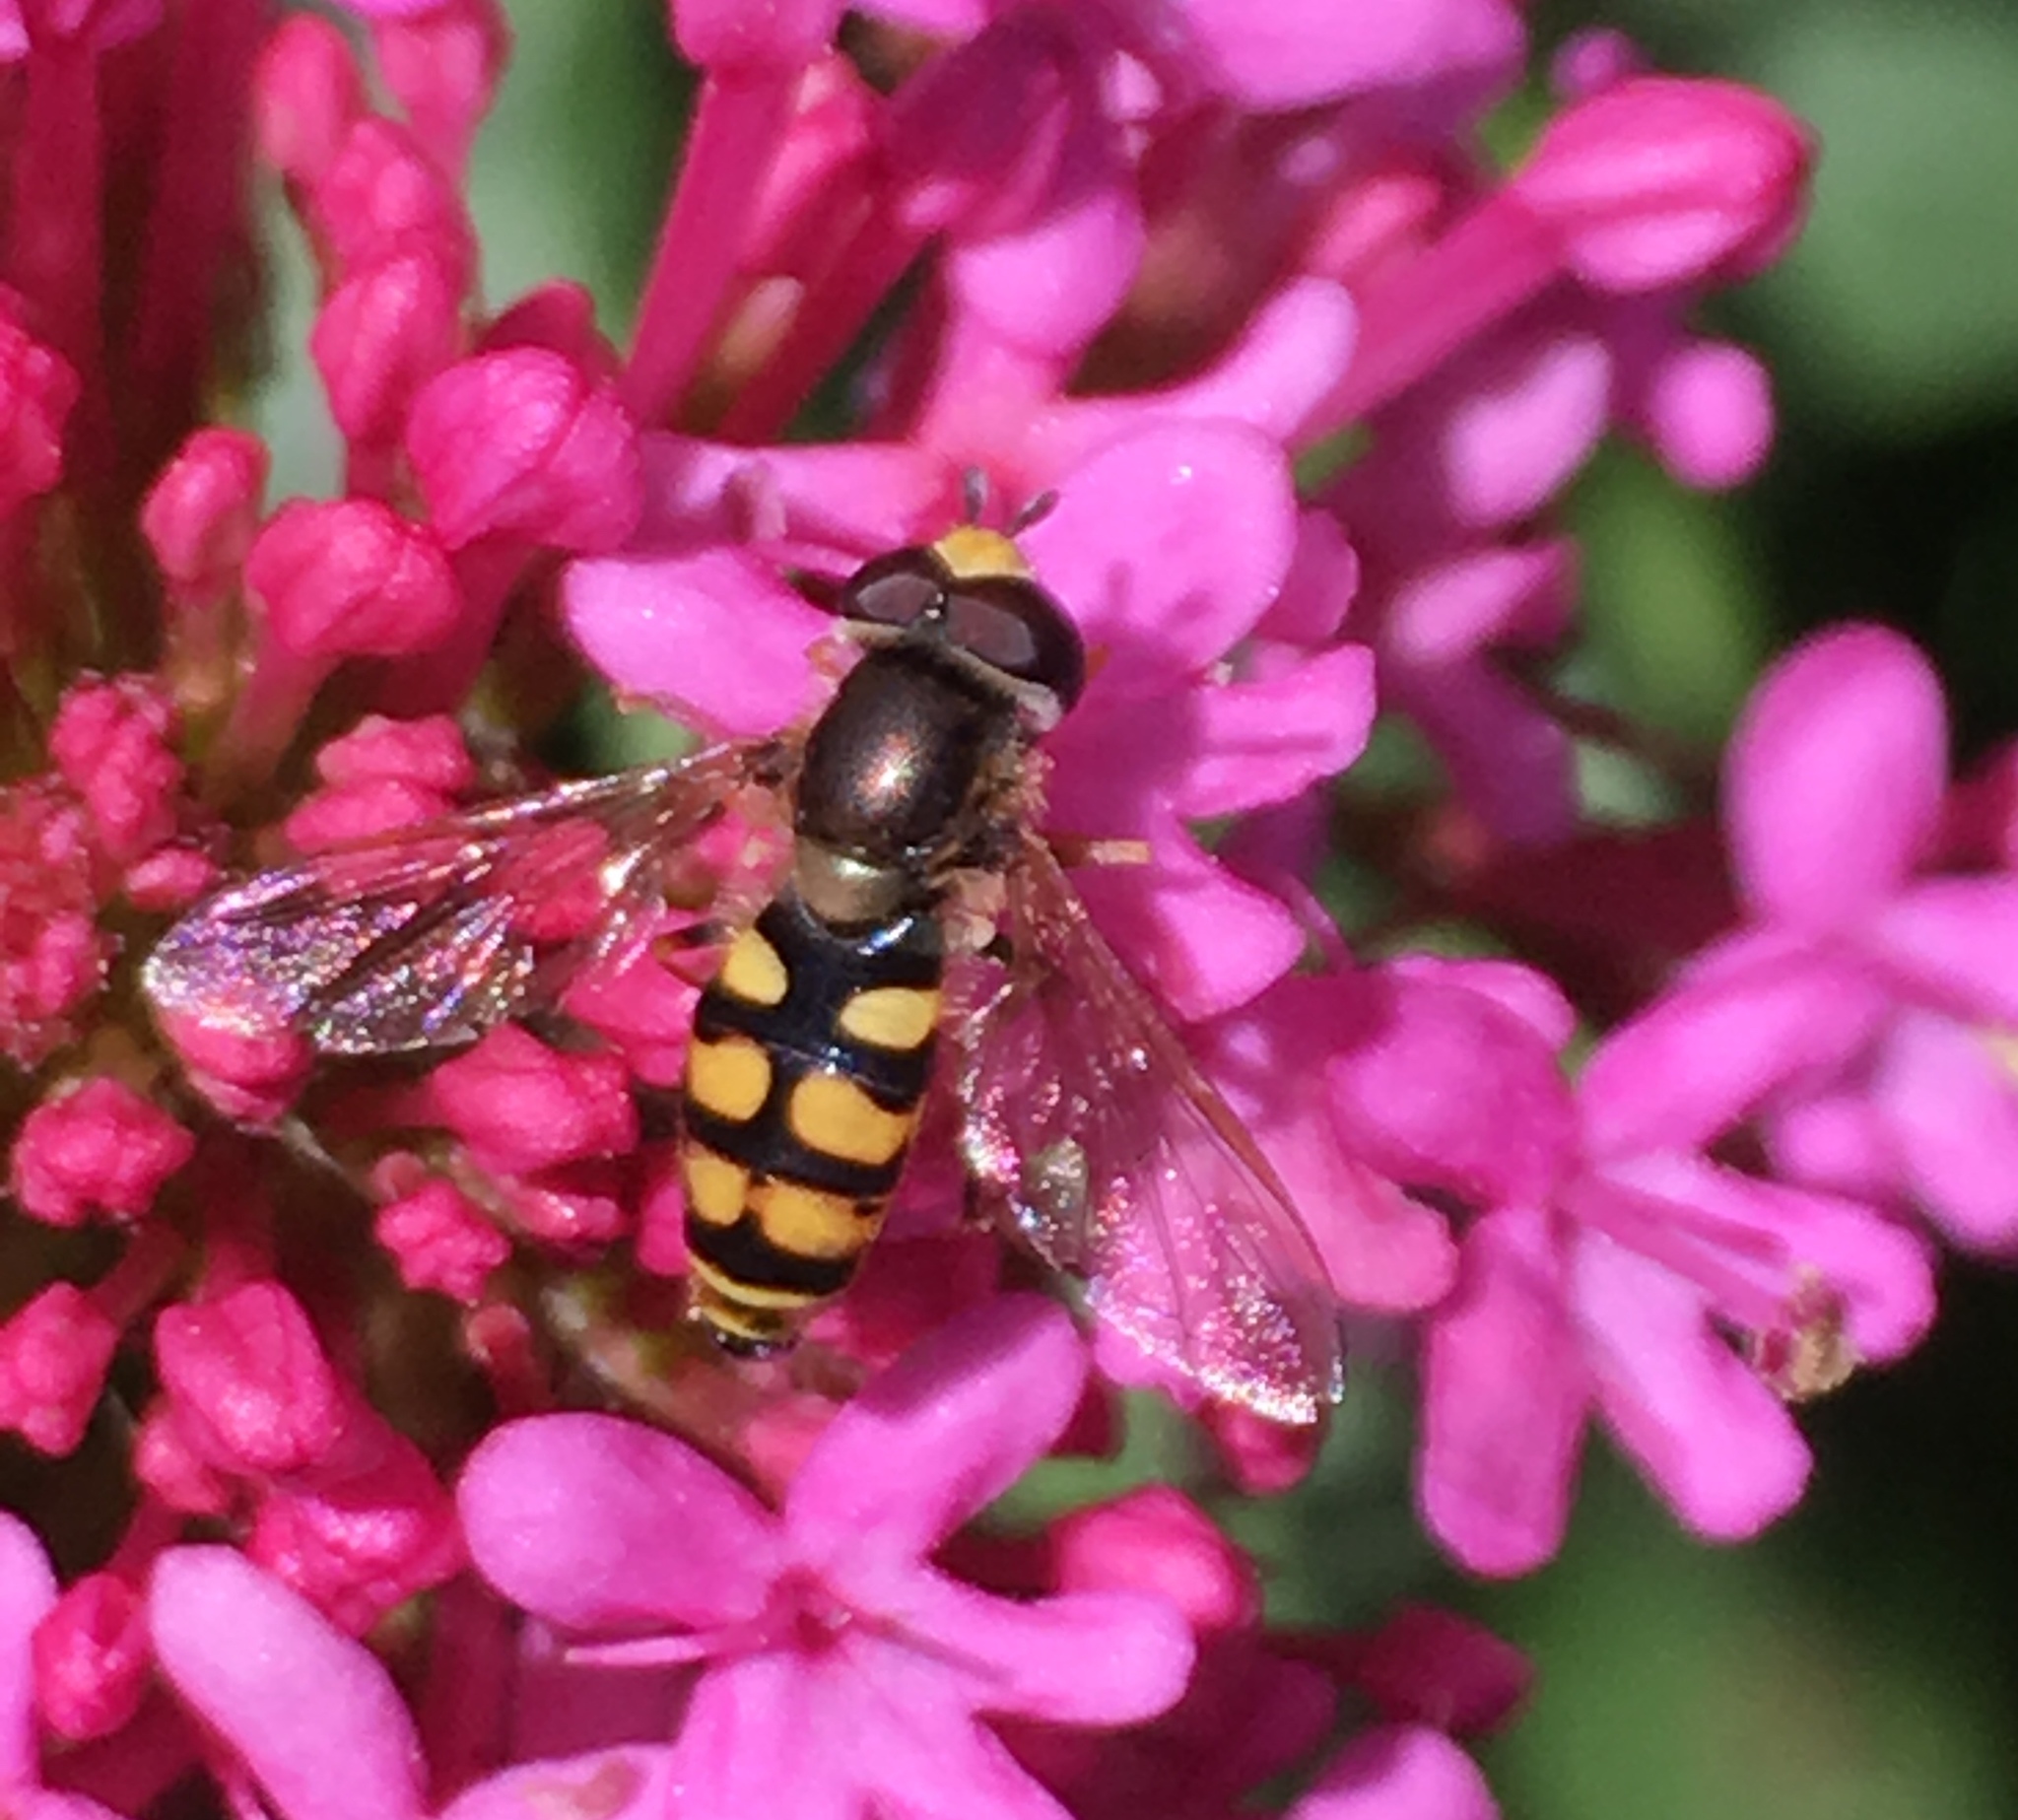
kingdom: Animalia
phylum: Arthropoda
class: Insecta
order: Diptera
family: Syrphidae
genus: Eupeodes
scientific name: Eupeodes corollae
